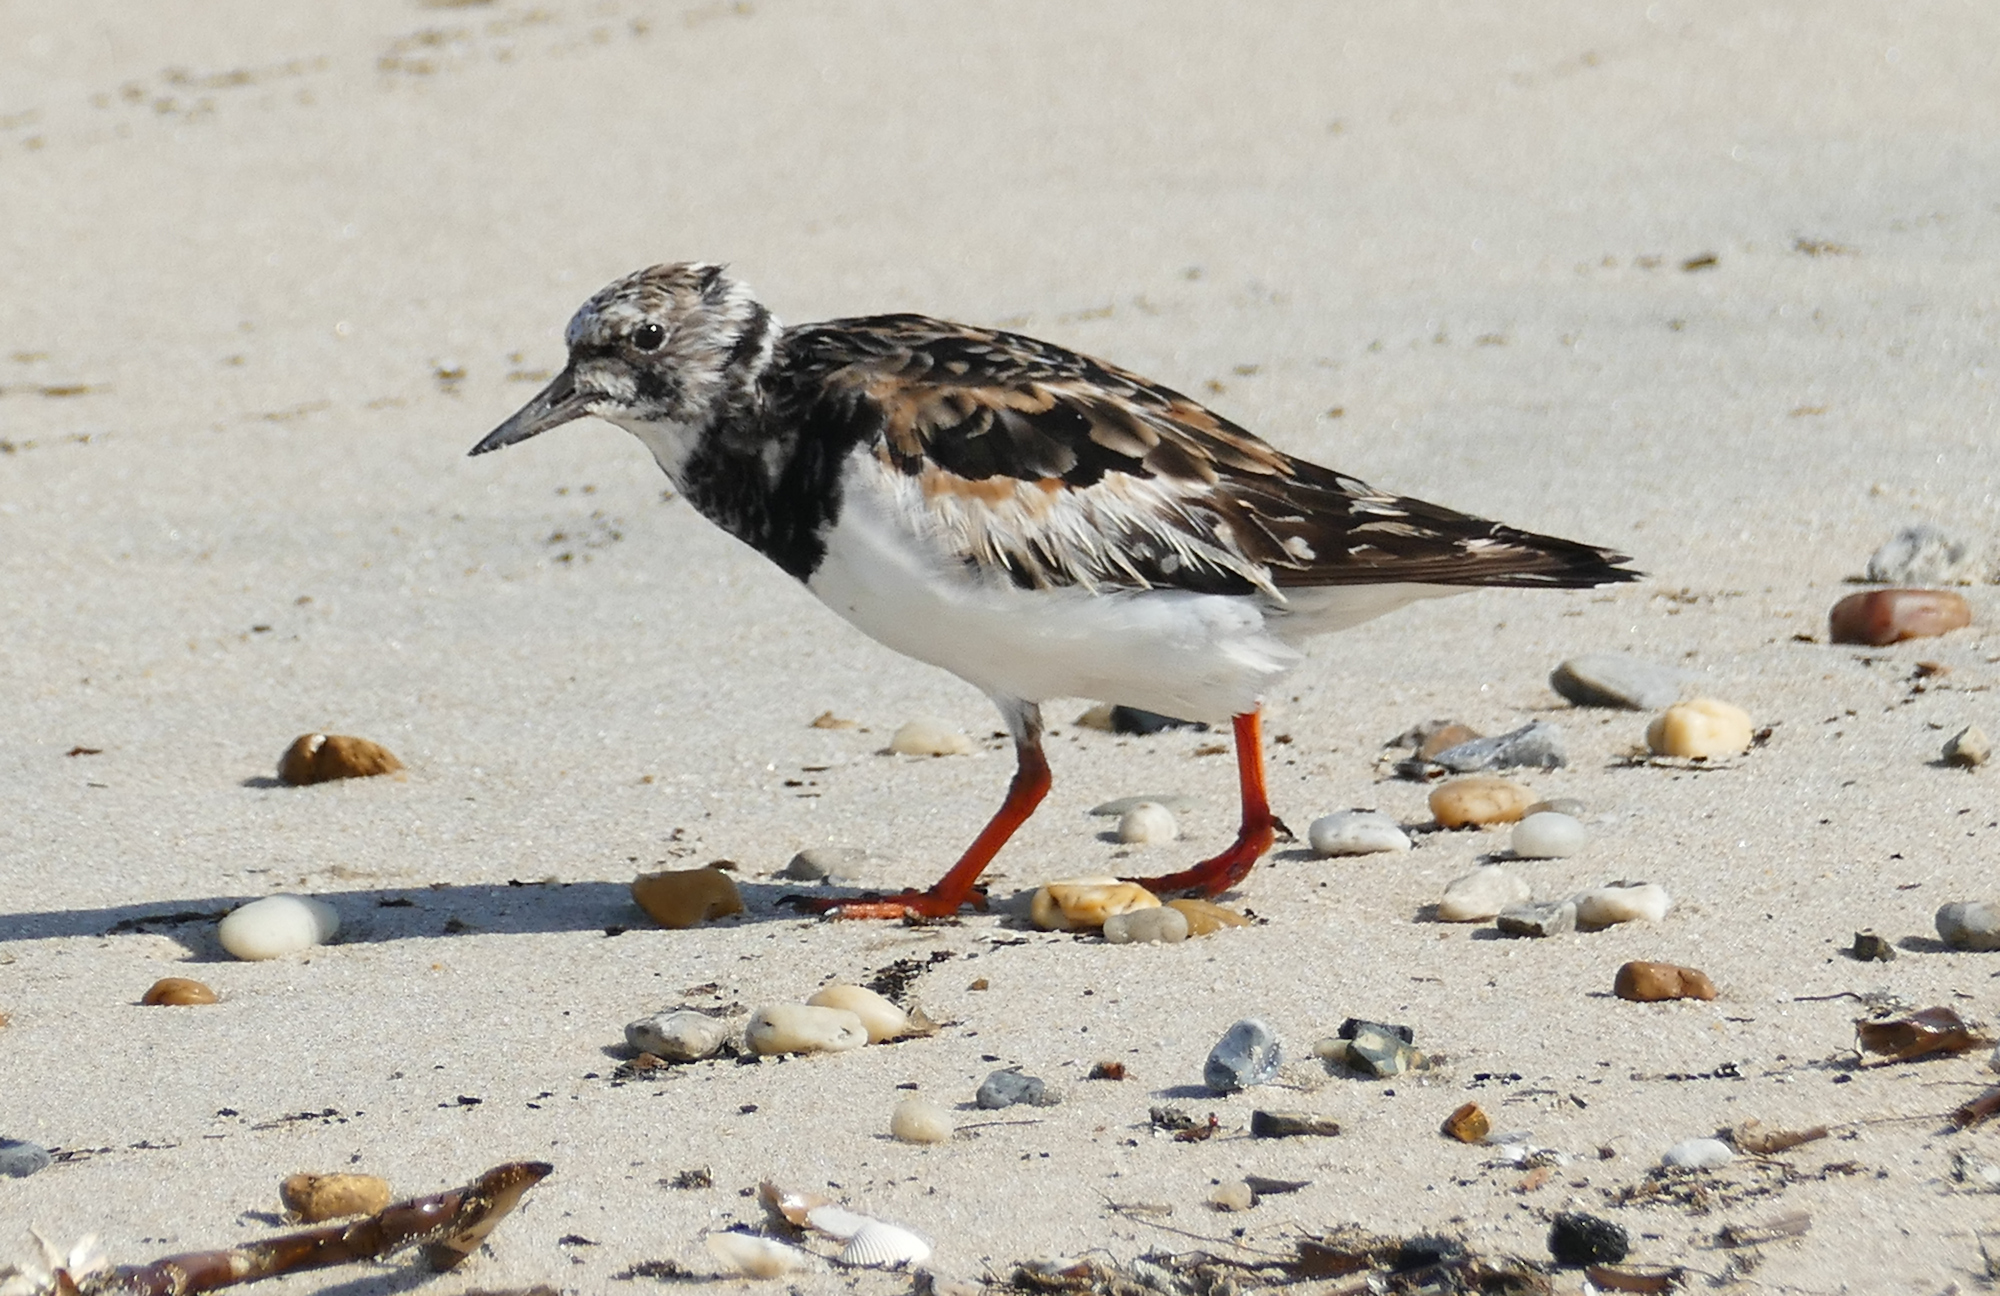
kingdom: Animalia
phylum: Chordata
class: Aves
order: Charadriiformes
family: Scolopacidae
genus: Arenaria
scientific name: Arenaria interpres
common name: Ruddy turnstone
